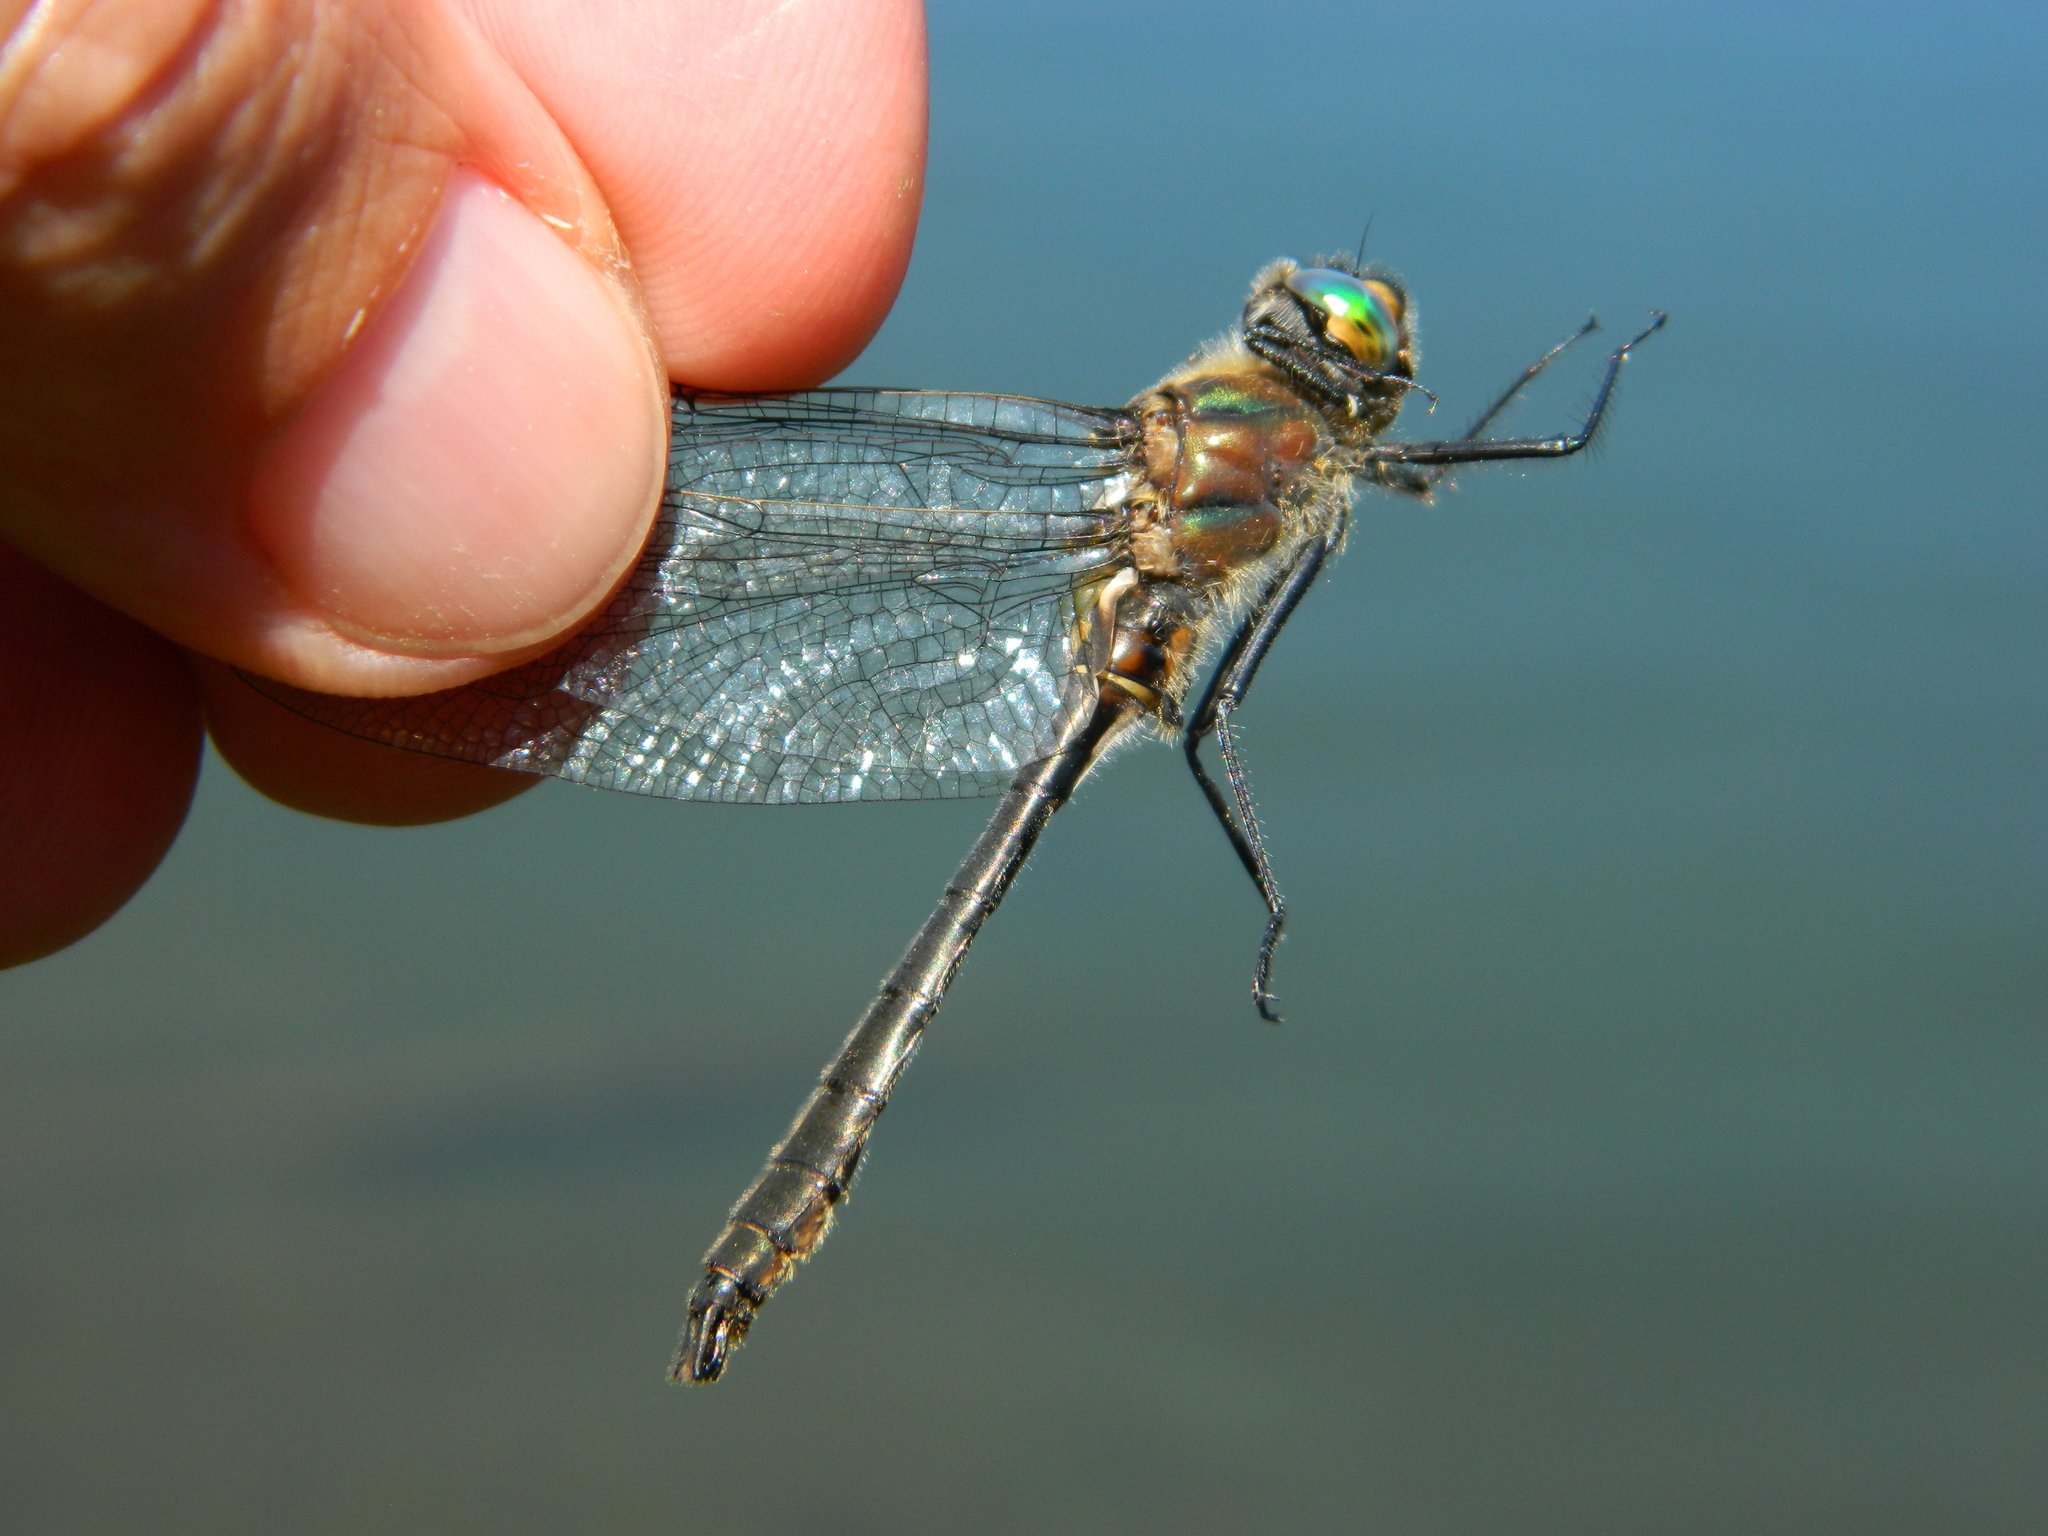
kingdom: Animalia
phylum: Arthropoda
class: Insecta
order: Odonata
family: Corduliidae
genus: Cordulia
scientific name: Cordulia shurtleffii
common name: American emerald
